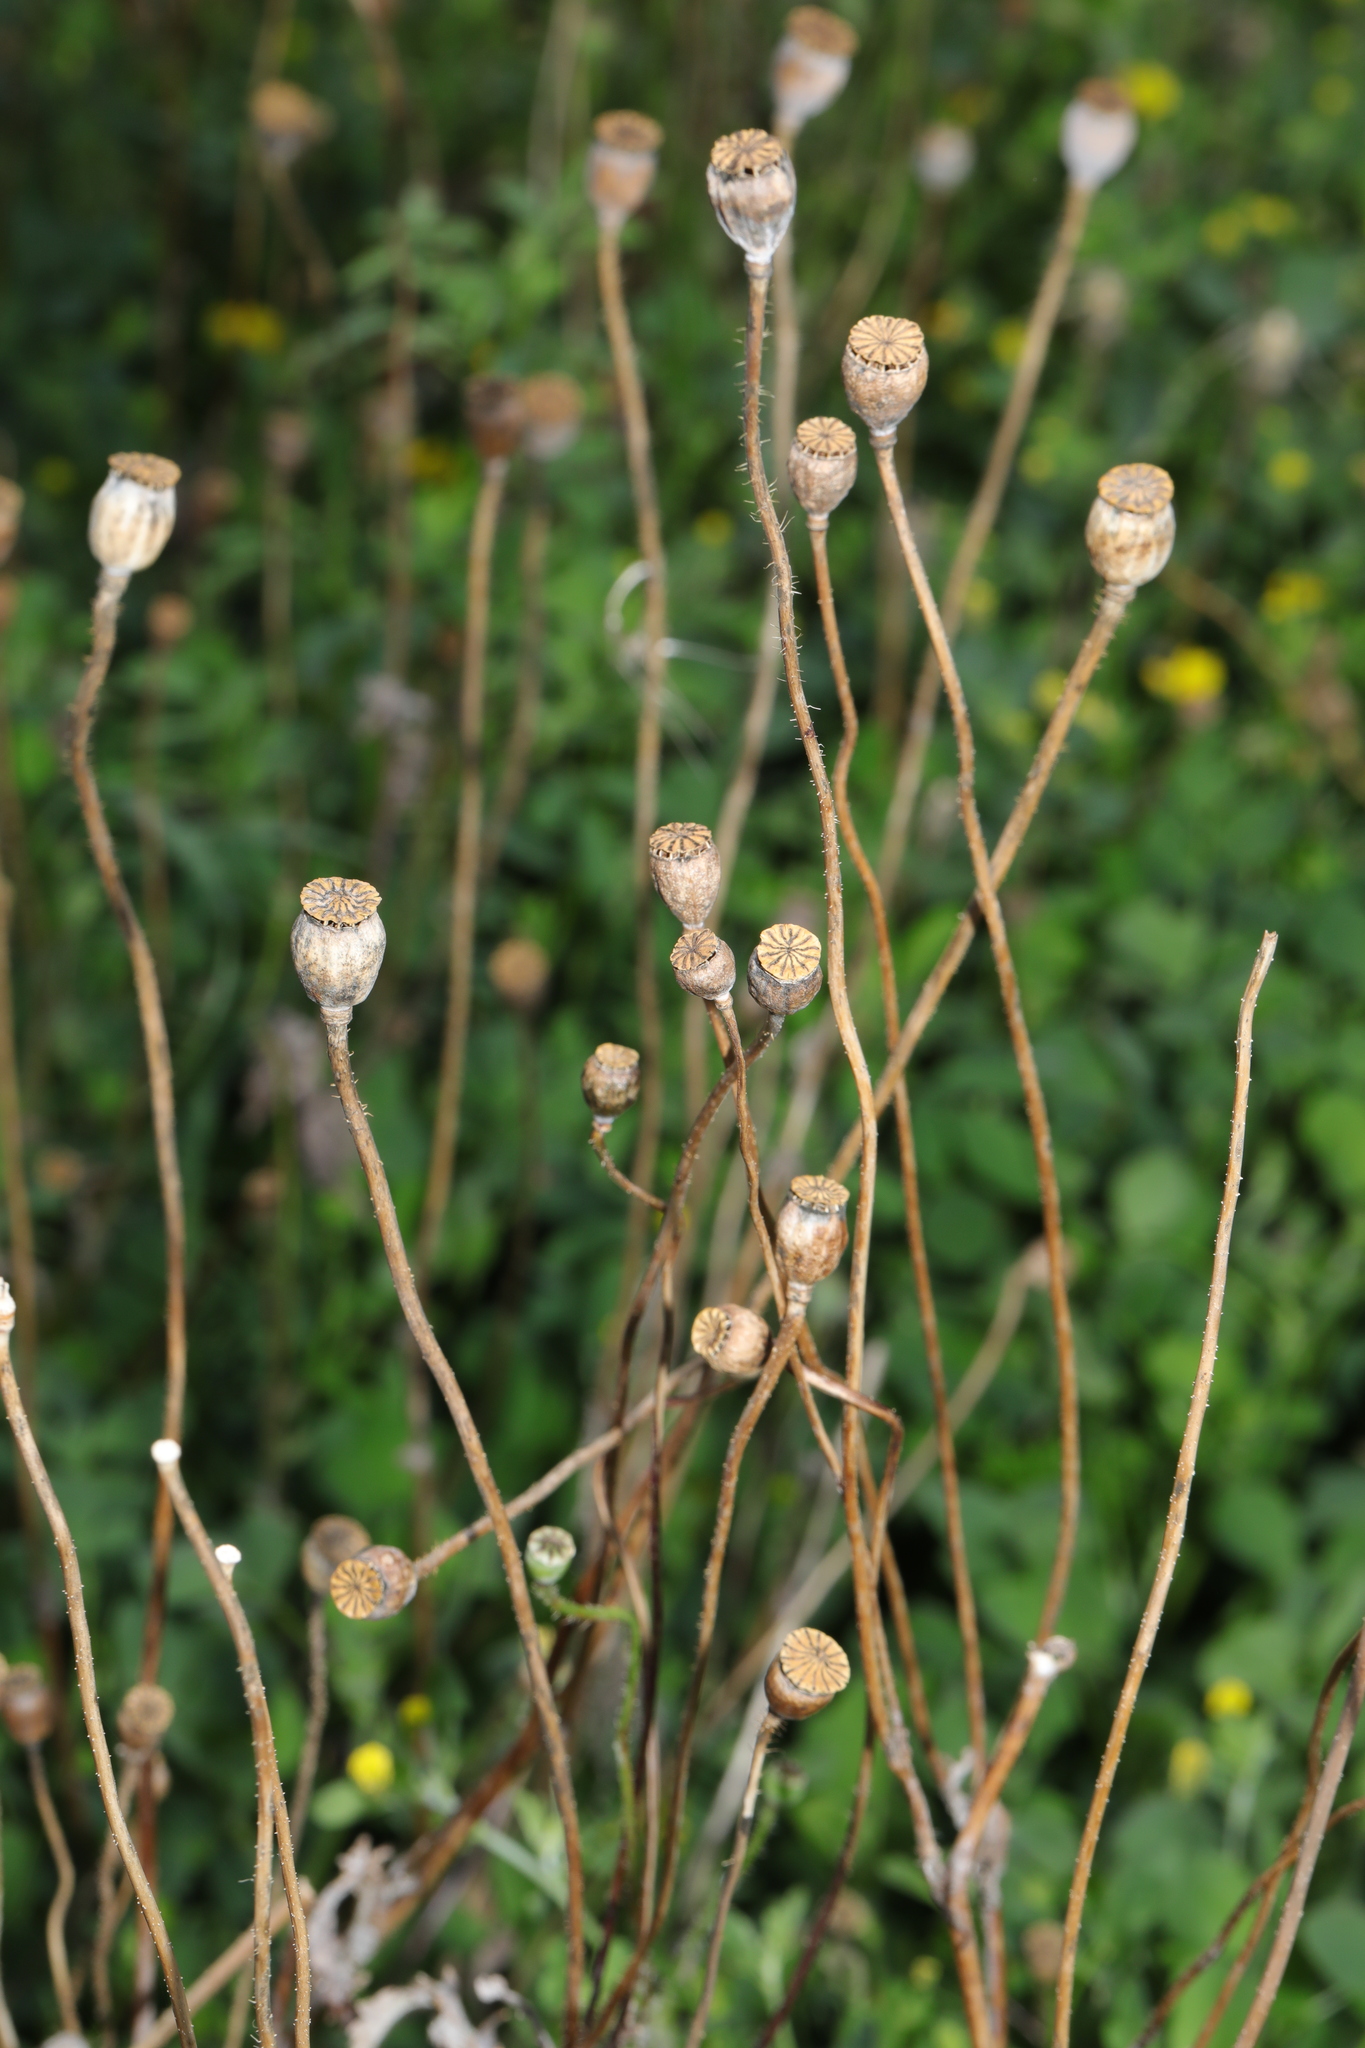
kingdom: Plantae
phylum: Tracheophyta
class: Magnoliopsida
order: Ranunculales
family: Papaveraceae
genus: Papaver
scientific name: Papaver rhoeas
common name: Corn poppy
